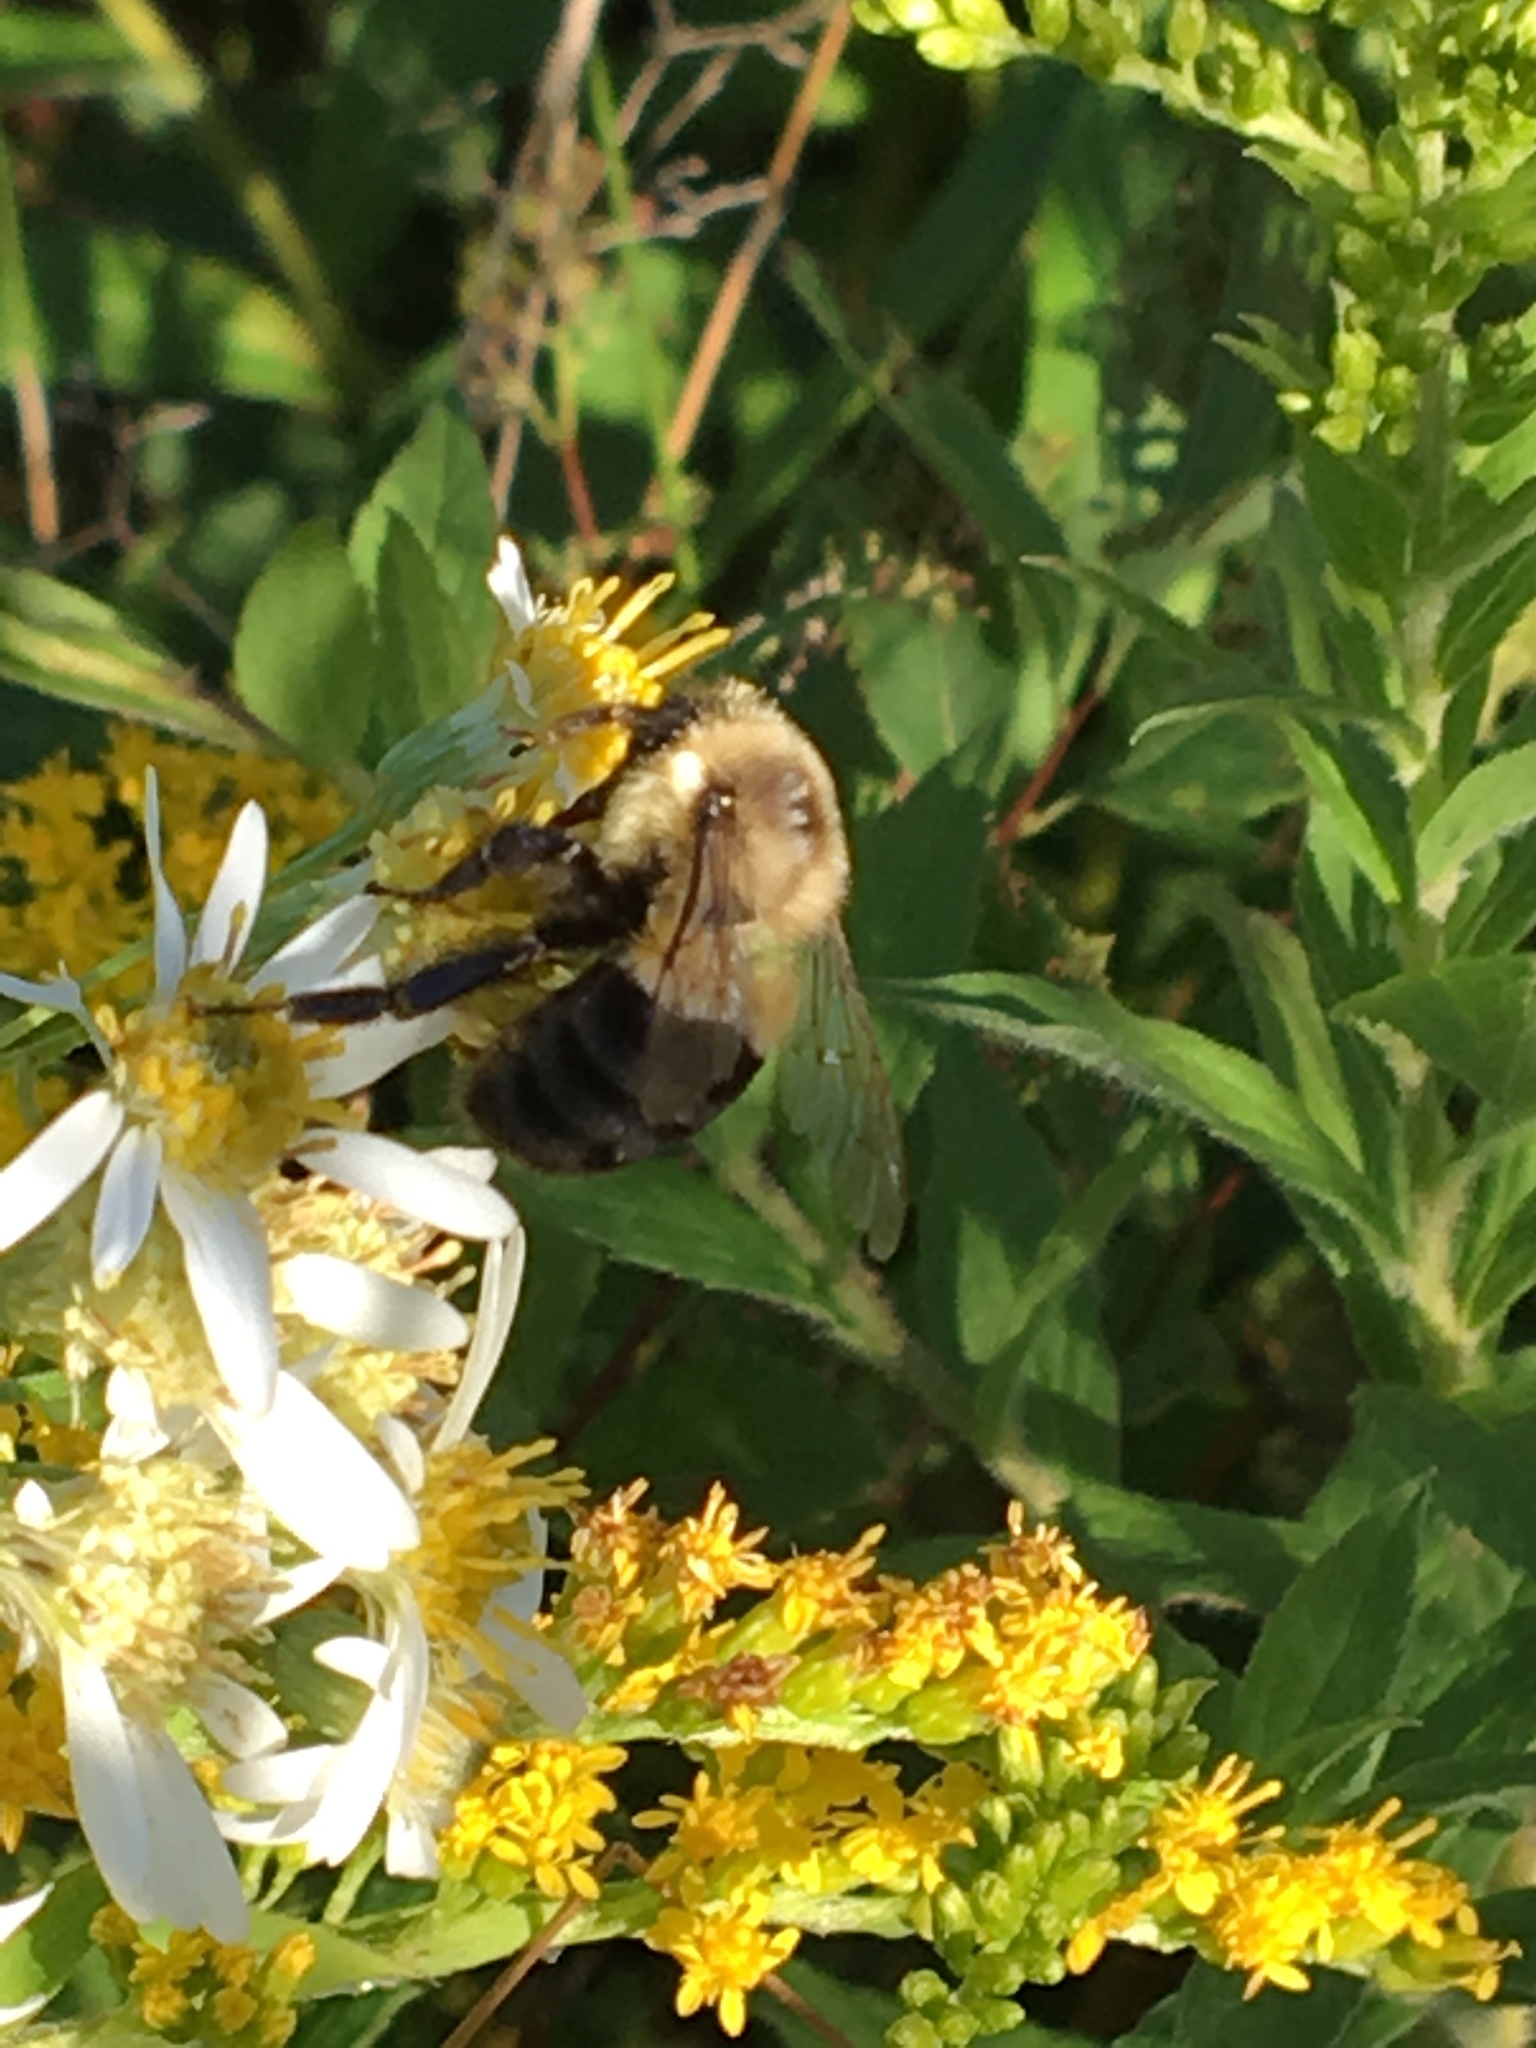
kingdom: Animalia
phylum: Arthropoda
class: Insecta
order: Hymenoptera
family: Apidae
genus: Bombus
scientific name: Bombus impatiens
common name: Common eastern bumble bee
